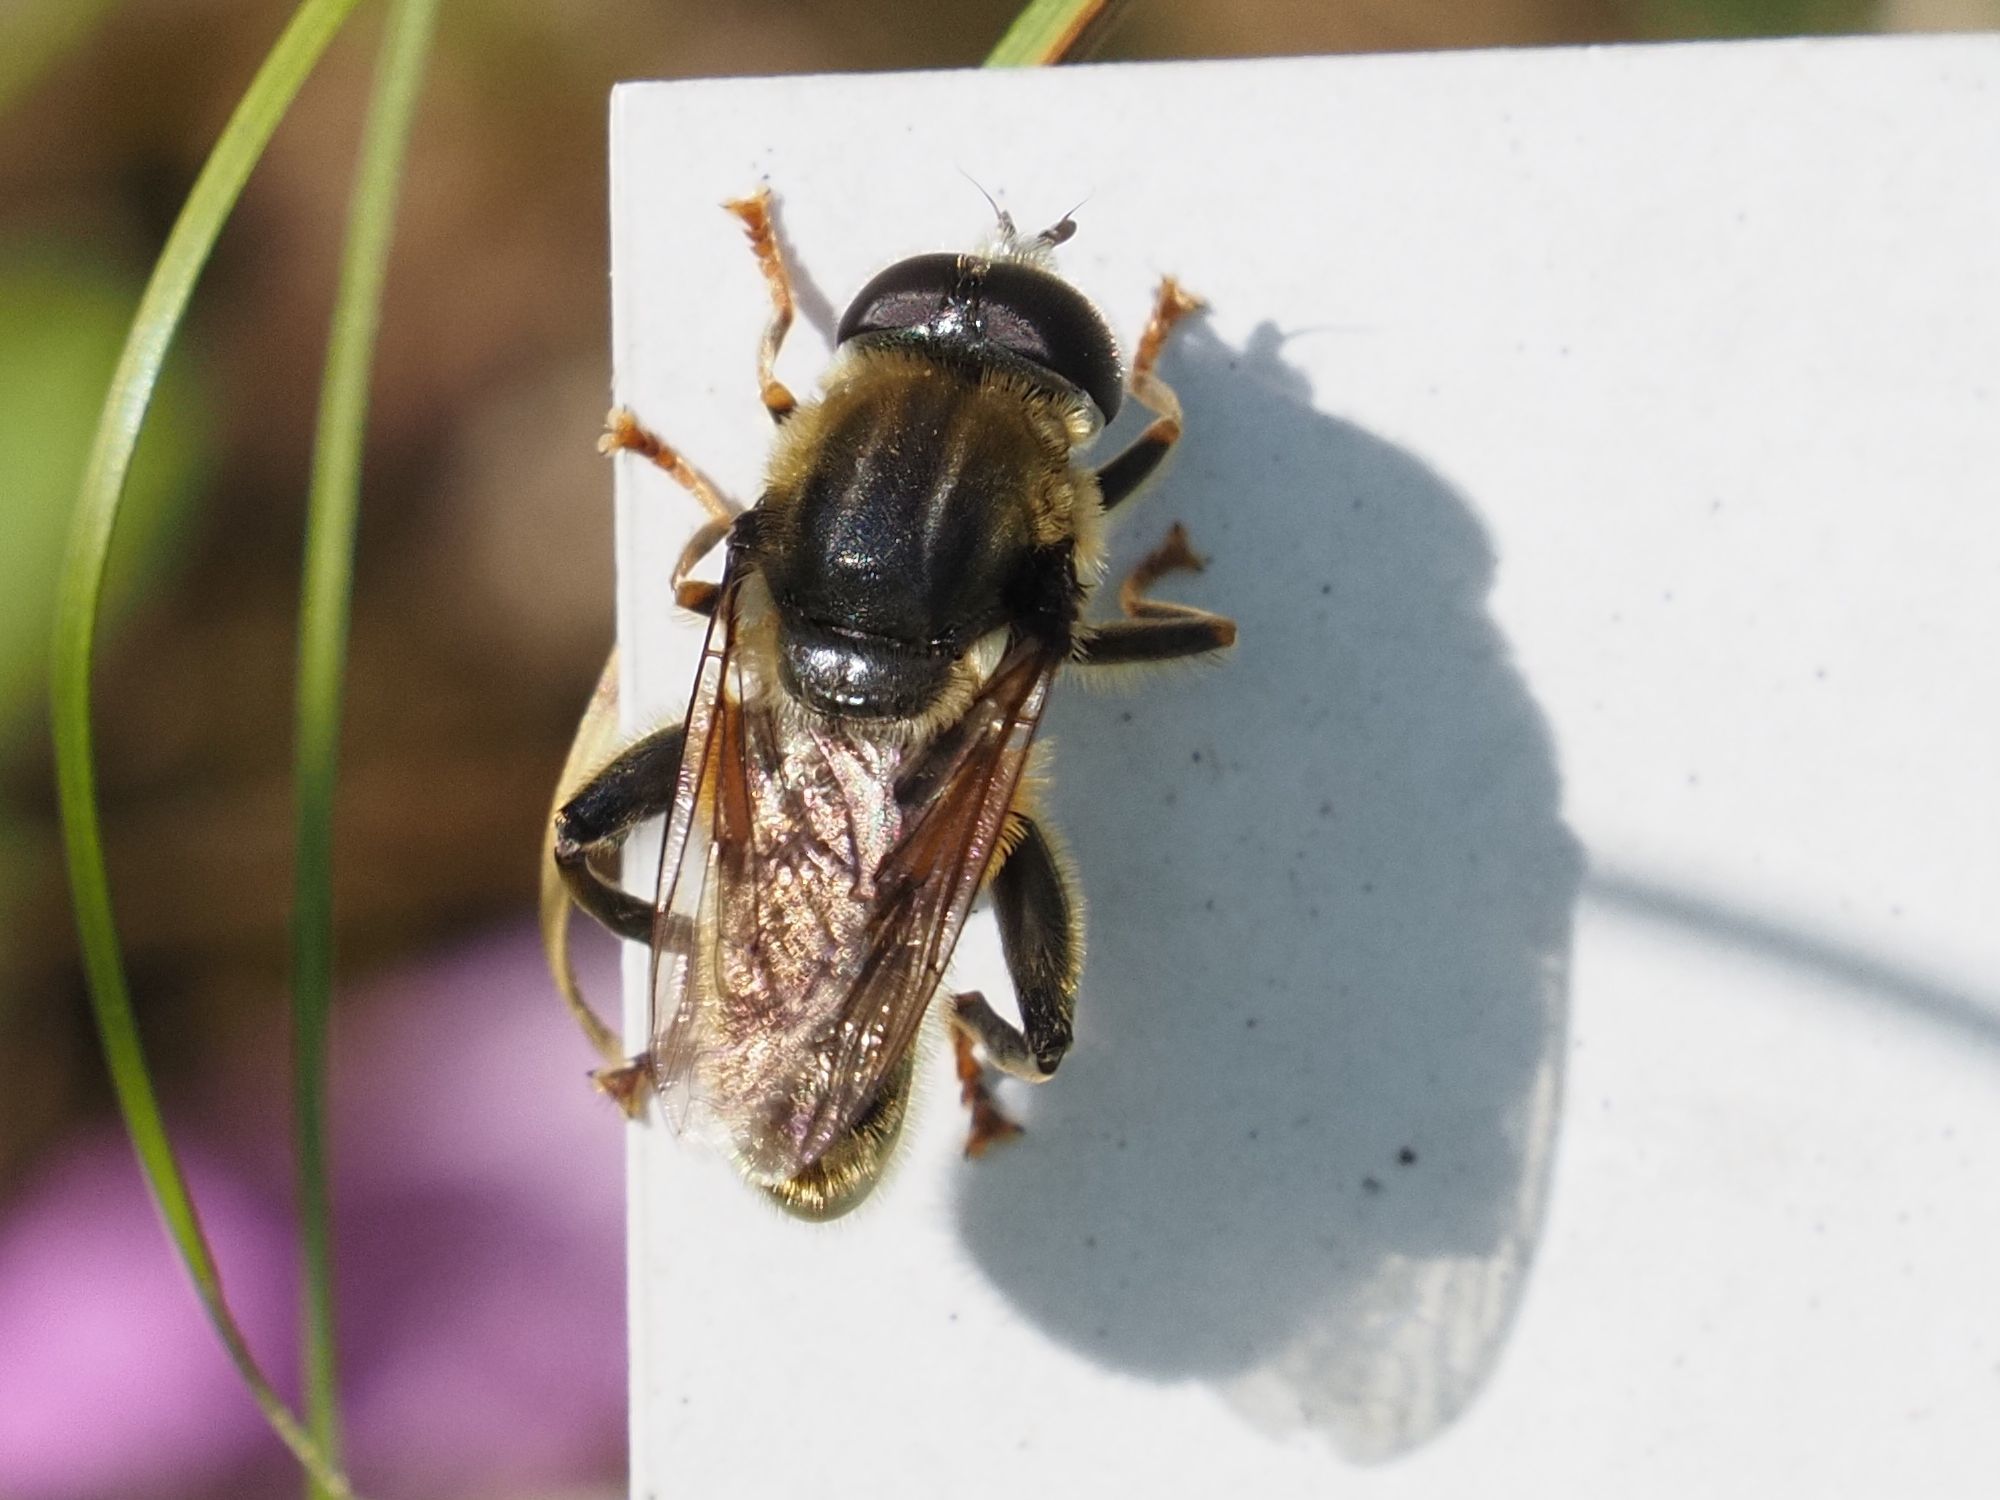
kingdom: Animalia
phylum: Arthropoda
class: Insecta
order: Diptera
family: Syrphidae
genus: Merodon
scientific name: Merodon avidus
